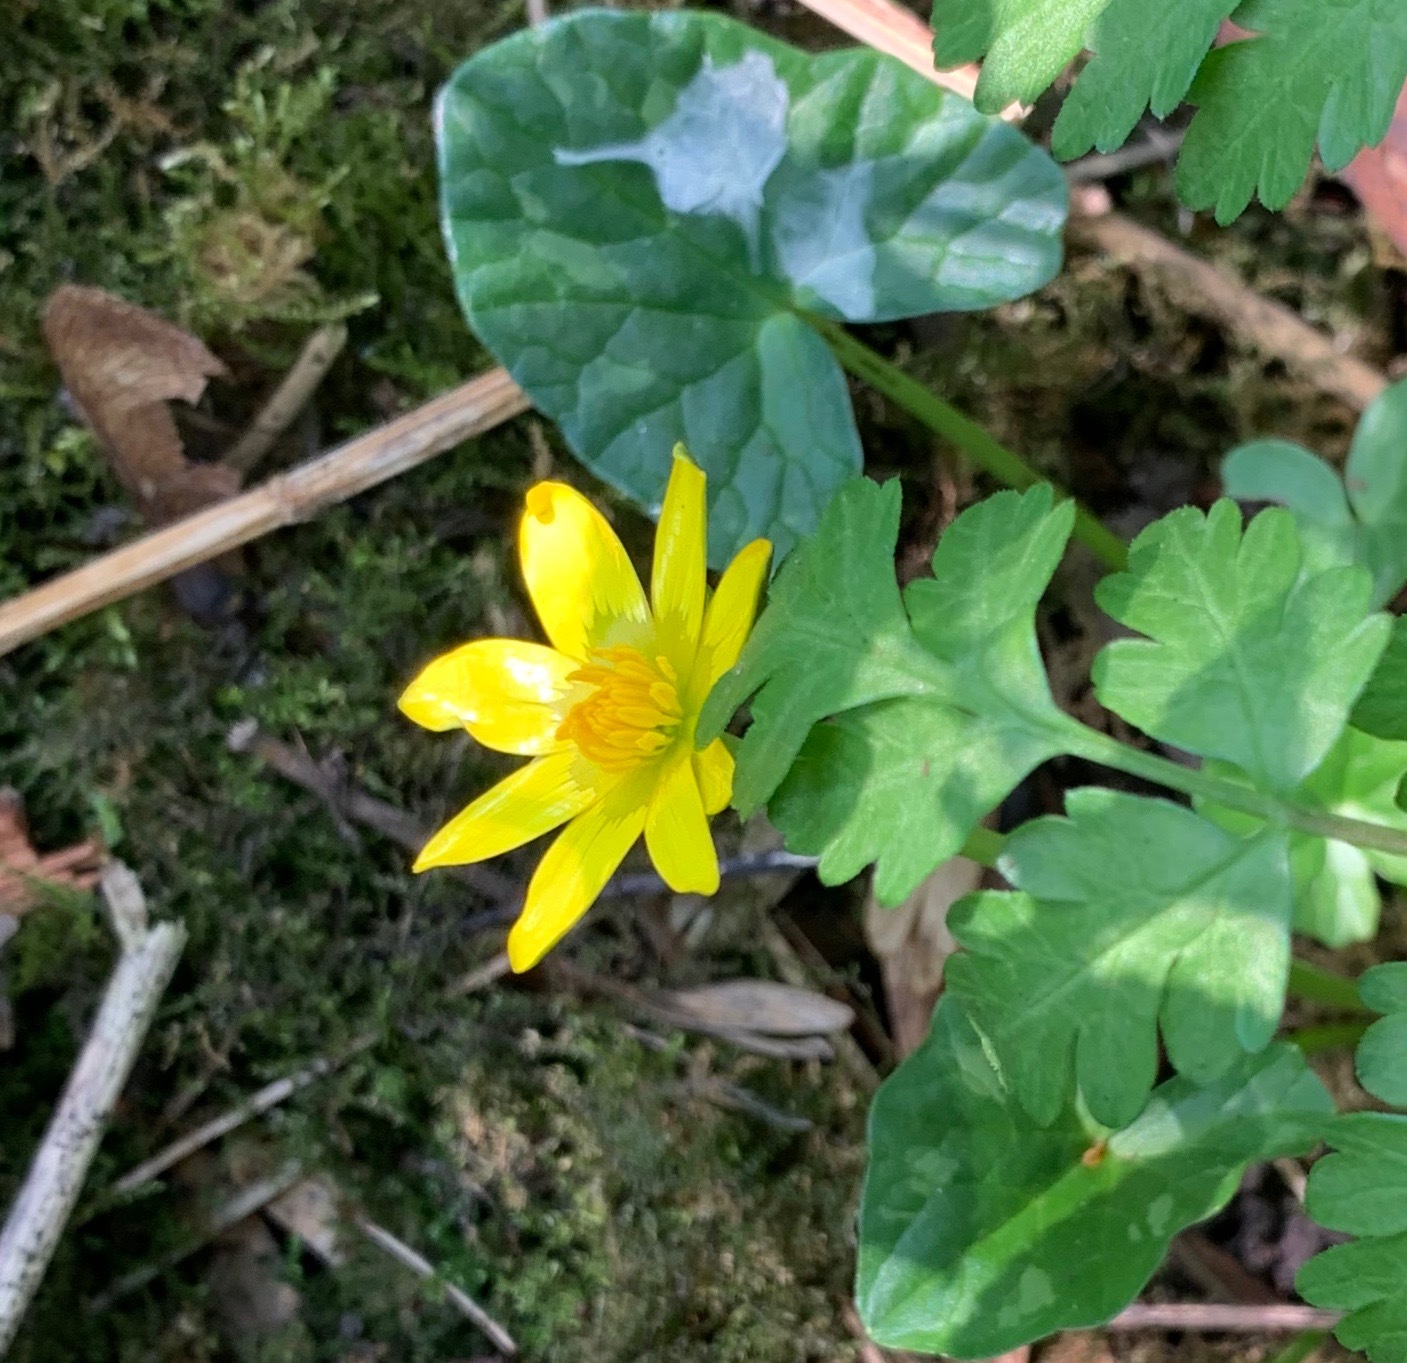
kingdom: Plantae
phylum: Tracheophyta
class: Magnoliopsida
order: Ranunculales
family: Ranunculaceae
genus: Ficaria
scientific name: Ficaria verna
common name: Lesser celandine
